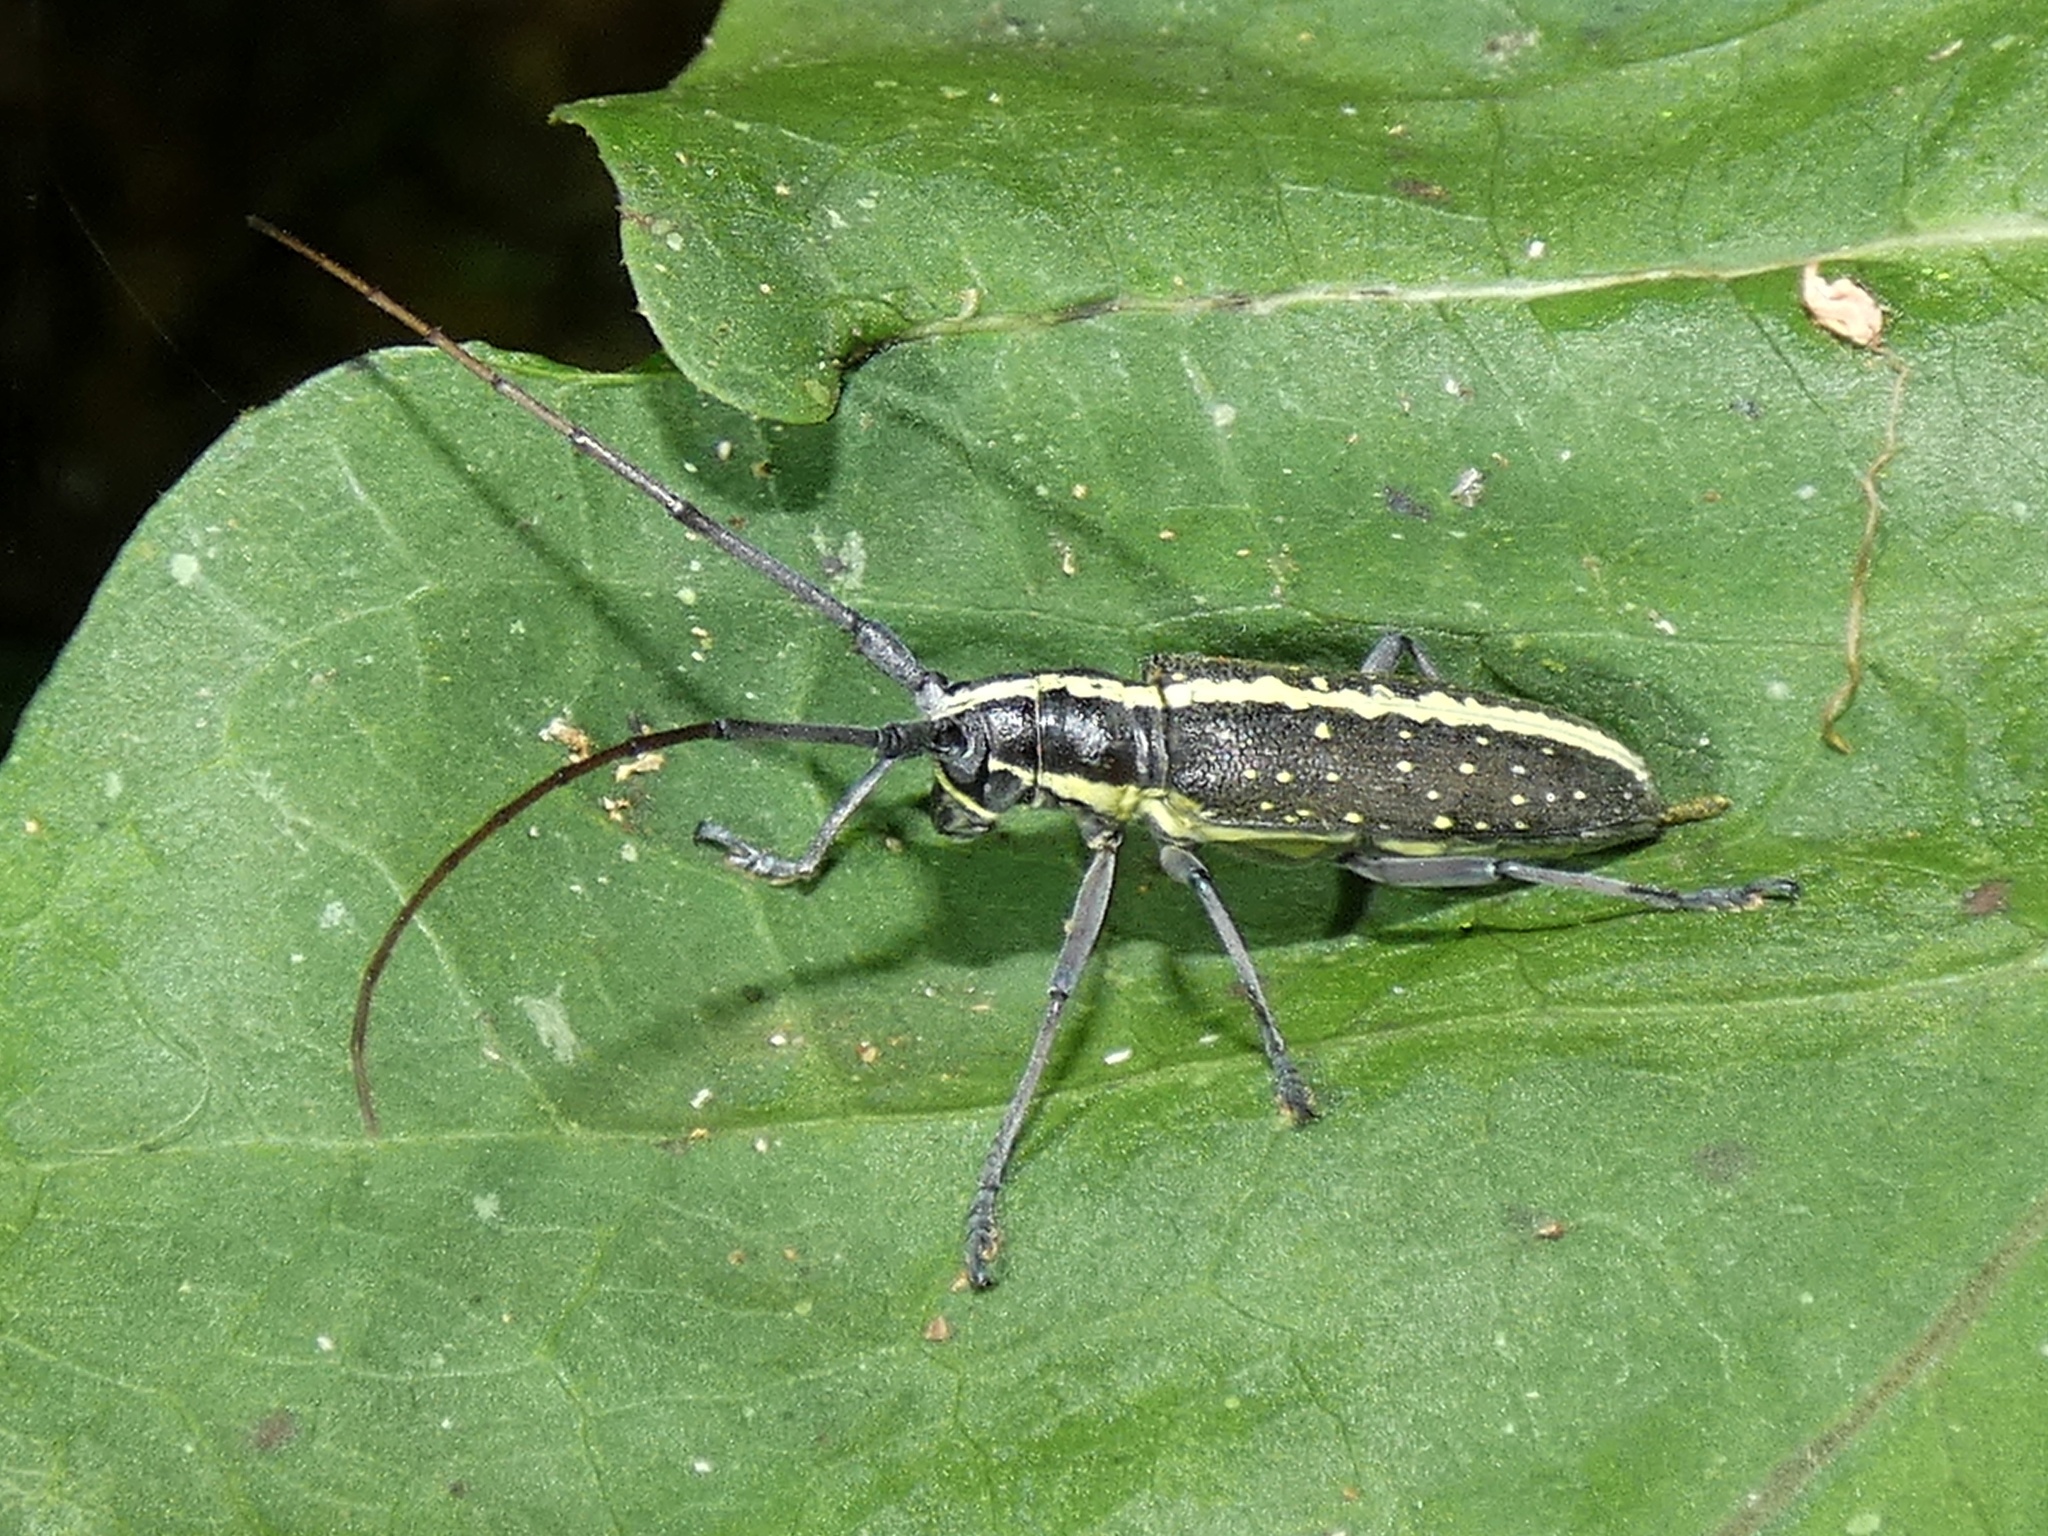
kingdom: Animalia
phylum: Arthropoda
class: Insecta
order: Coleoptera
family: Cerambycidae
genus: Neoptychodes
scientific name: Neoptychodes candidus
